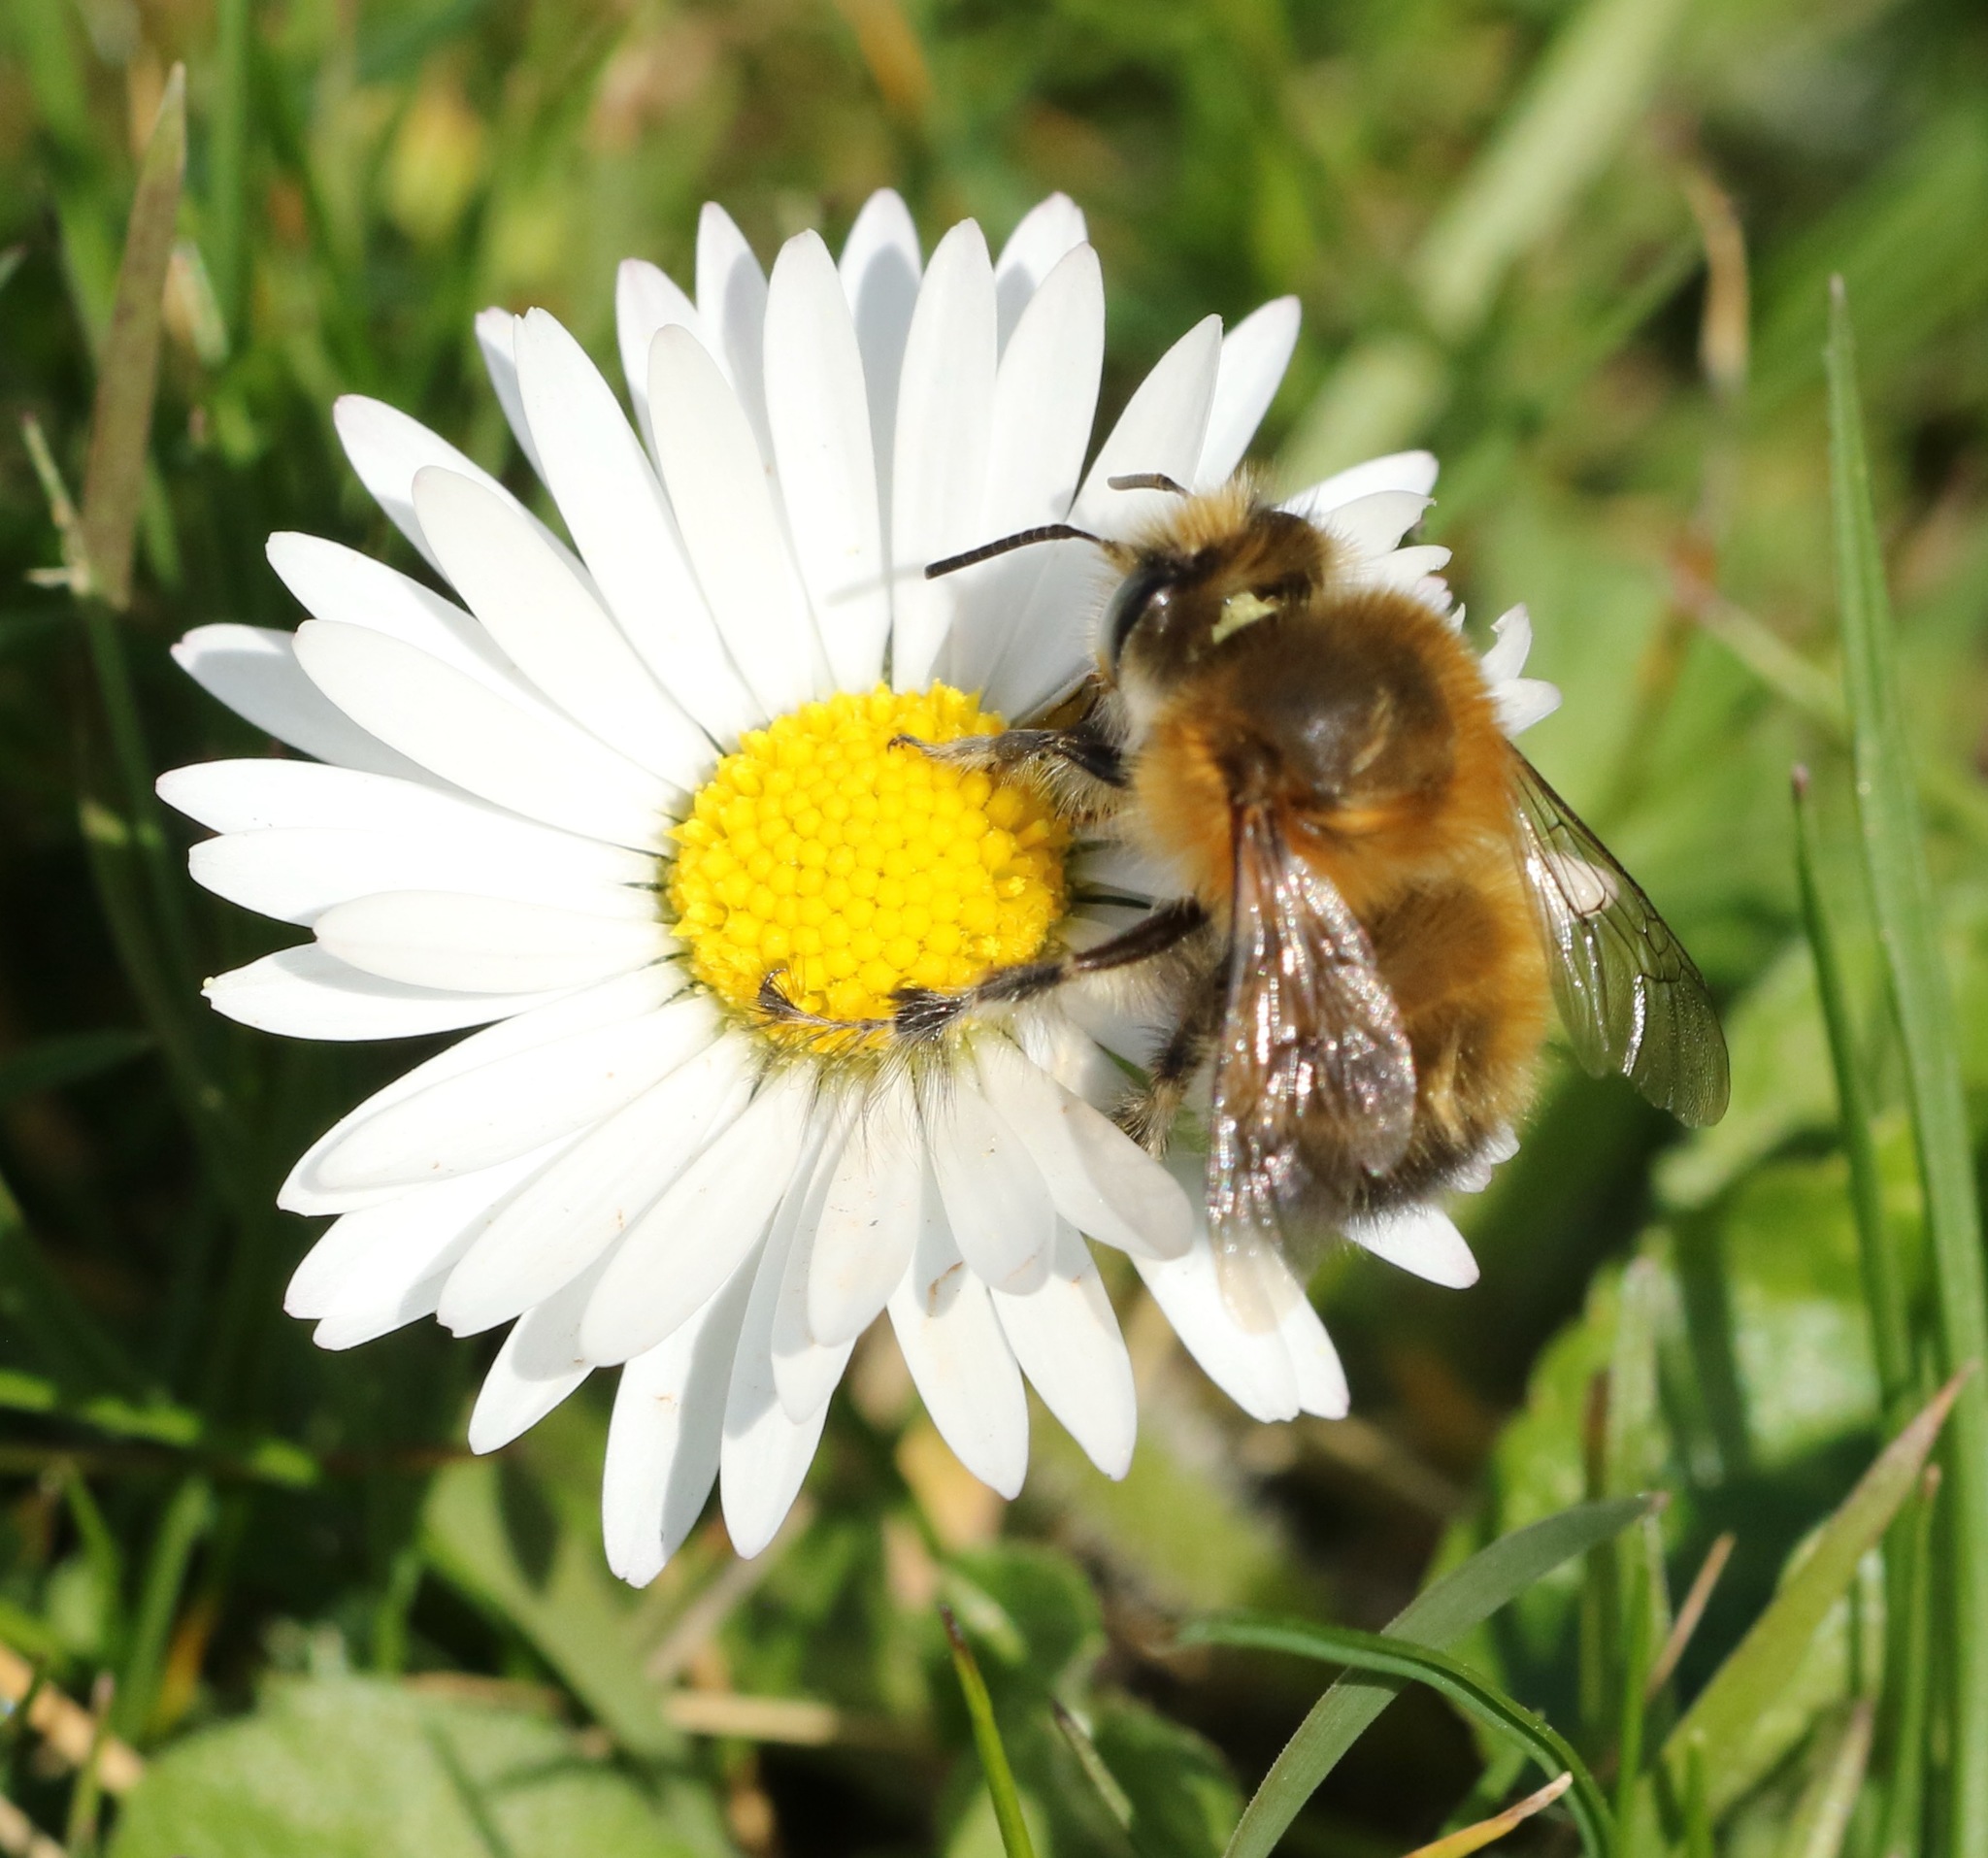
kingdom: Animalia
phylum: Arthropoda
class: Insecta
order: Hymenoptera
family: Apidae
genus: Anthophora
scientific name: Anthophora plumipes
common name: Hairy-footed flower bee
